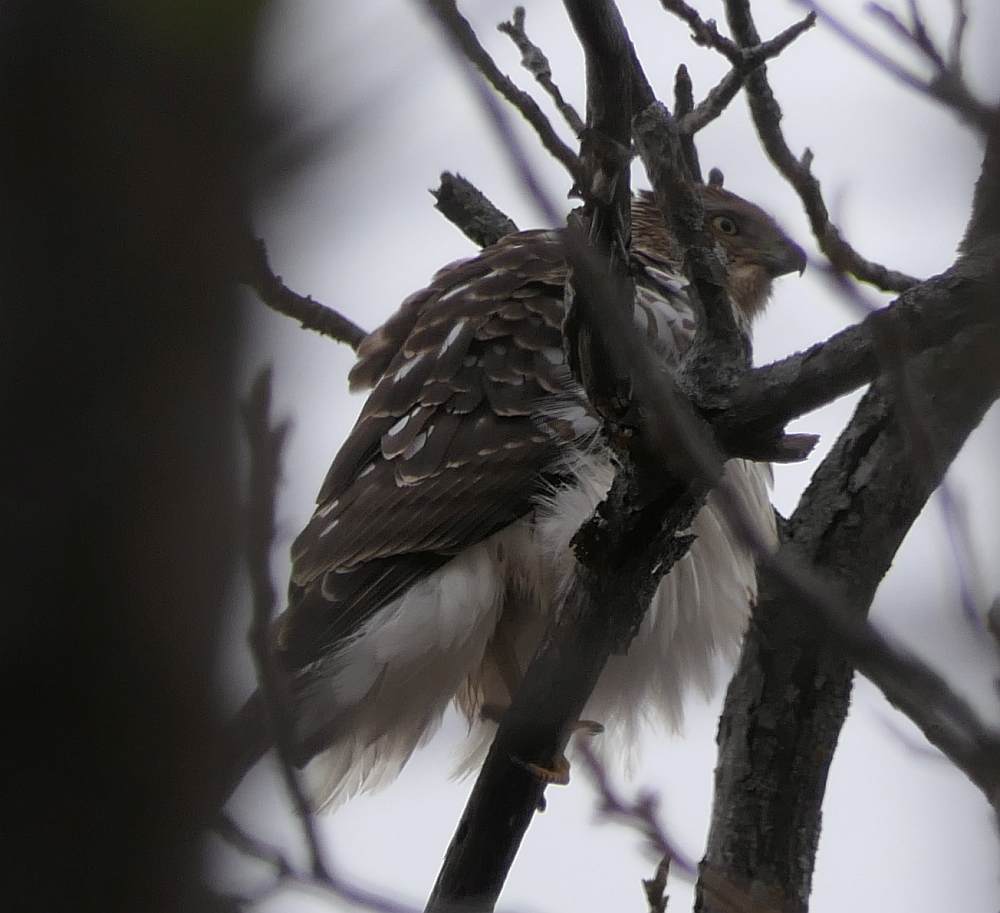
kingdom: Animalia
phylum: Chordata
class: Aves
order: Accipitriformes
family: Accipitridae
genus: Accipiter
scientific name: Accipiter cooperii
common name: Cooper's hawk
